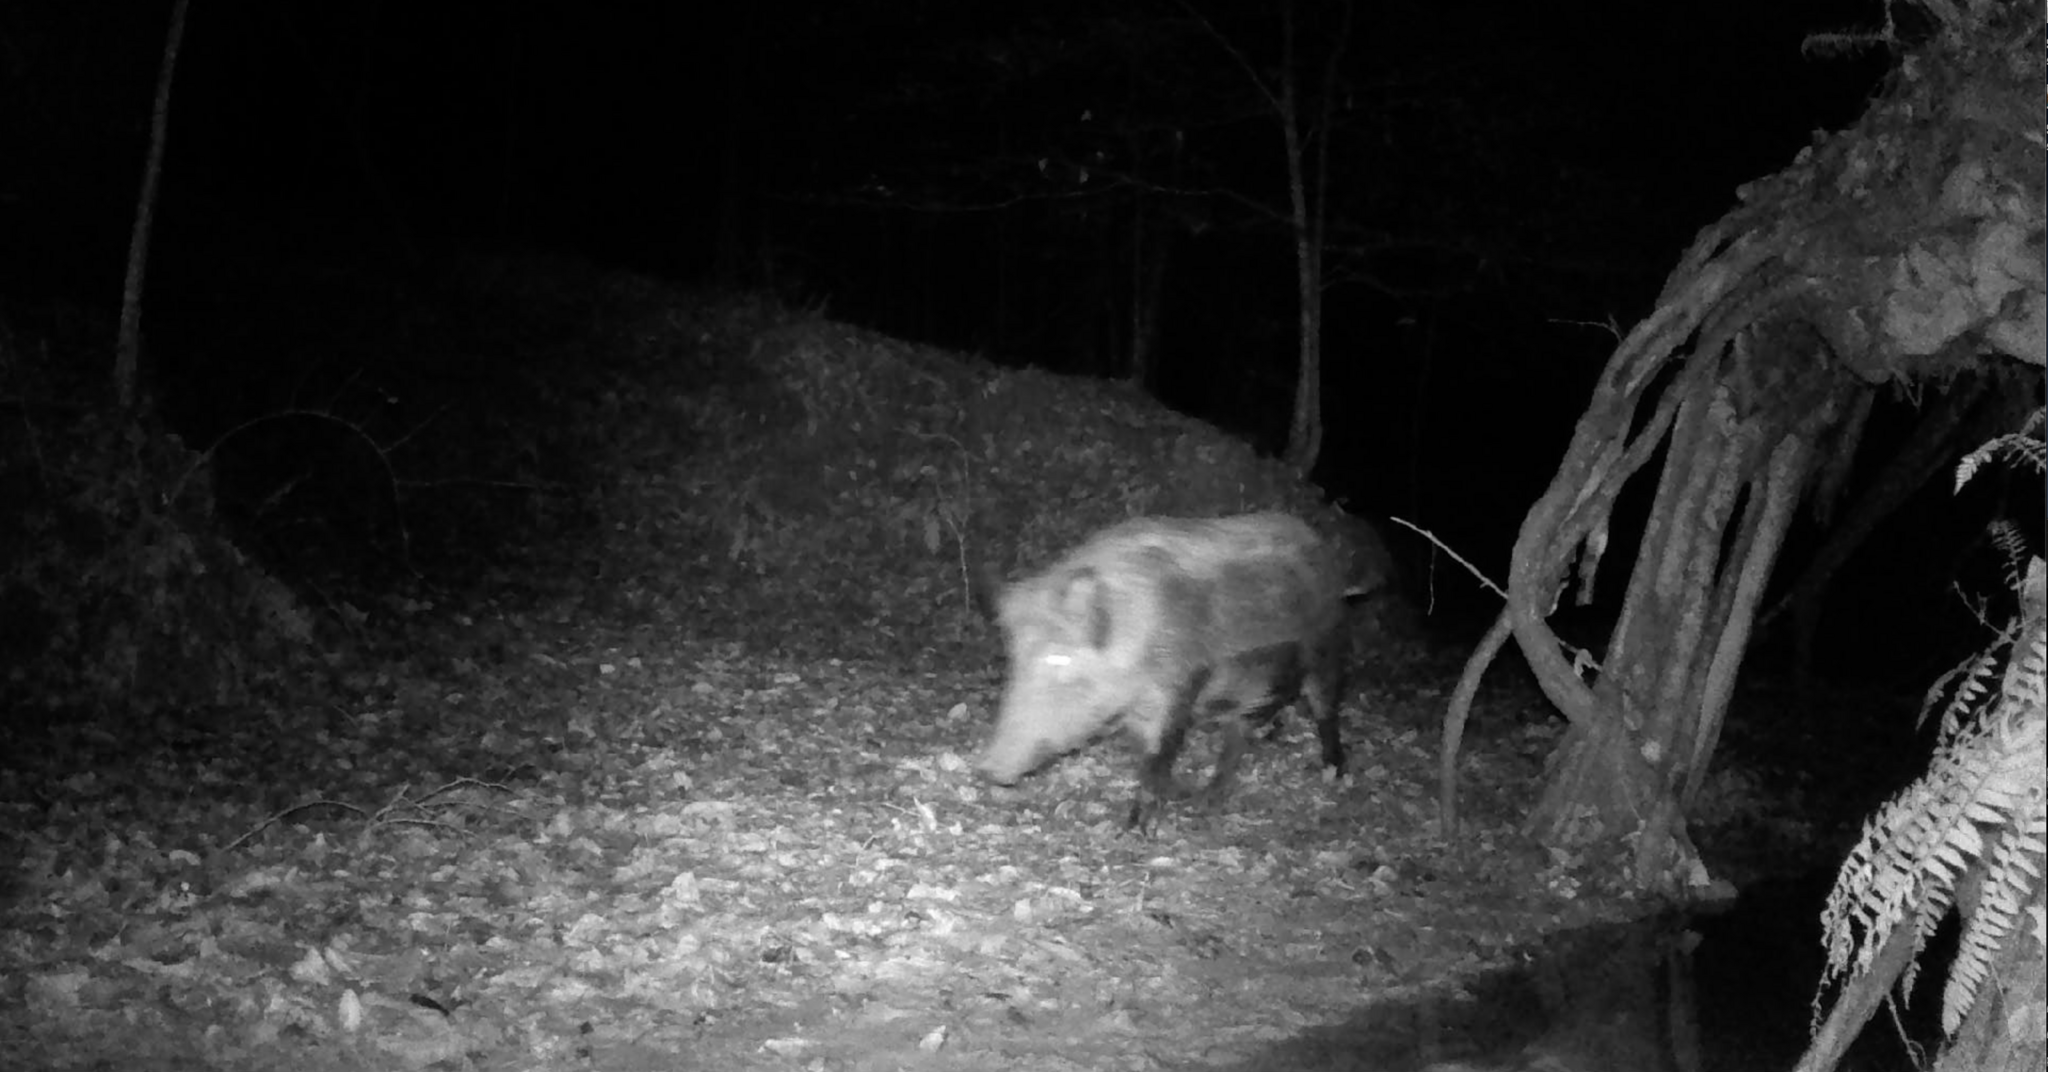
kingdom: Animalia
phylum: Chordata
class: Mammalia
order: Artiodactyla
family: Suidae
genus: Sus
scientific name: Sus scrofa
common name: Wild boar
